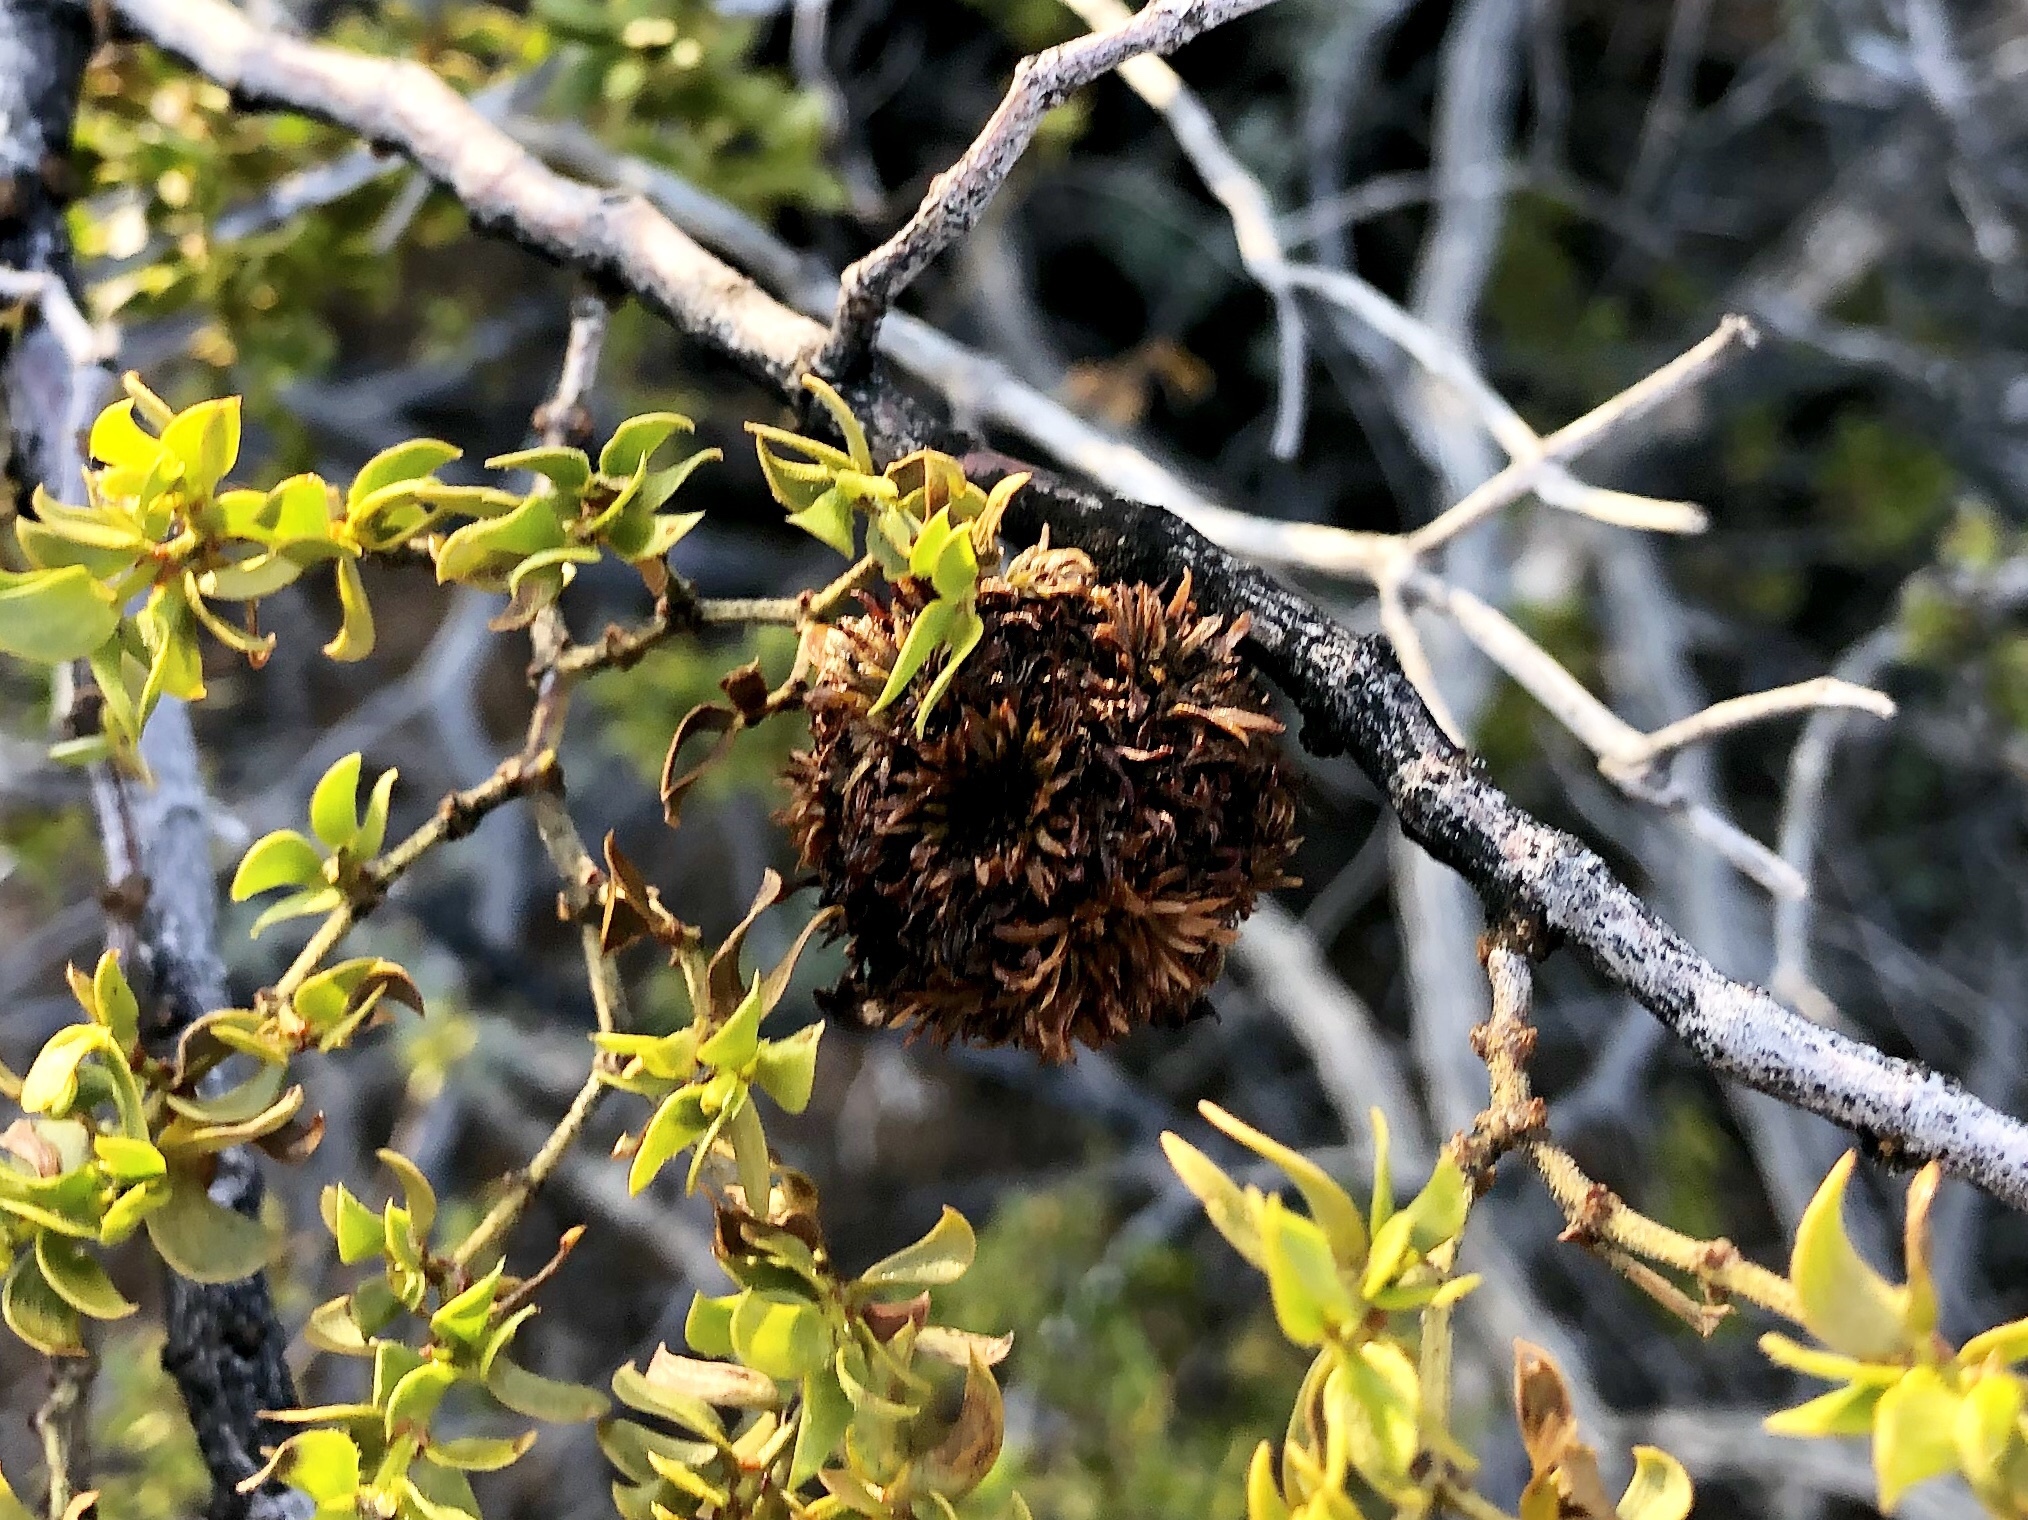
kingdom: Animalia
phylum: Arthropoda
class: Insecta
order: Diptera
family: Cecidomyiidae
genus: Asphondylia
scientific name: Asphondylia auripila
